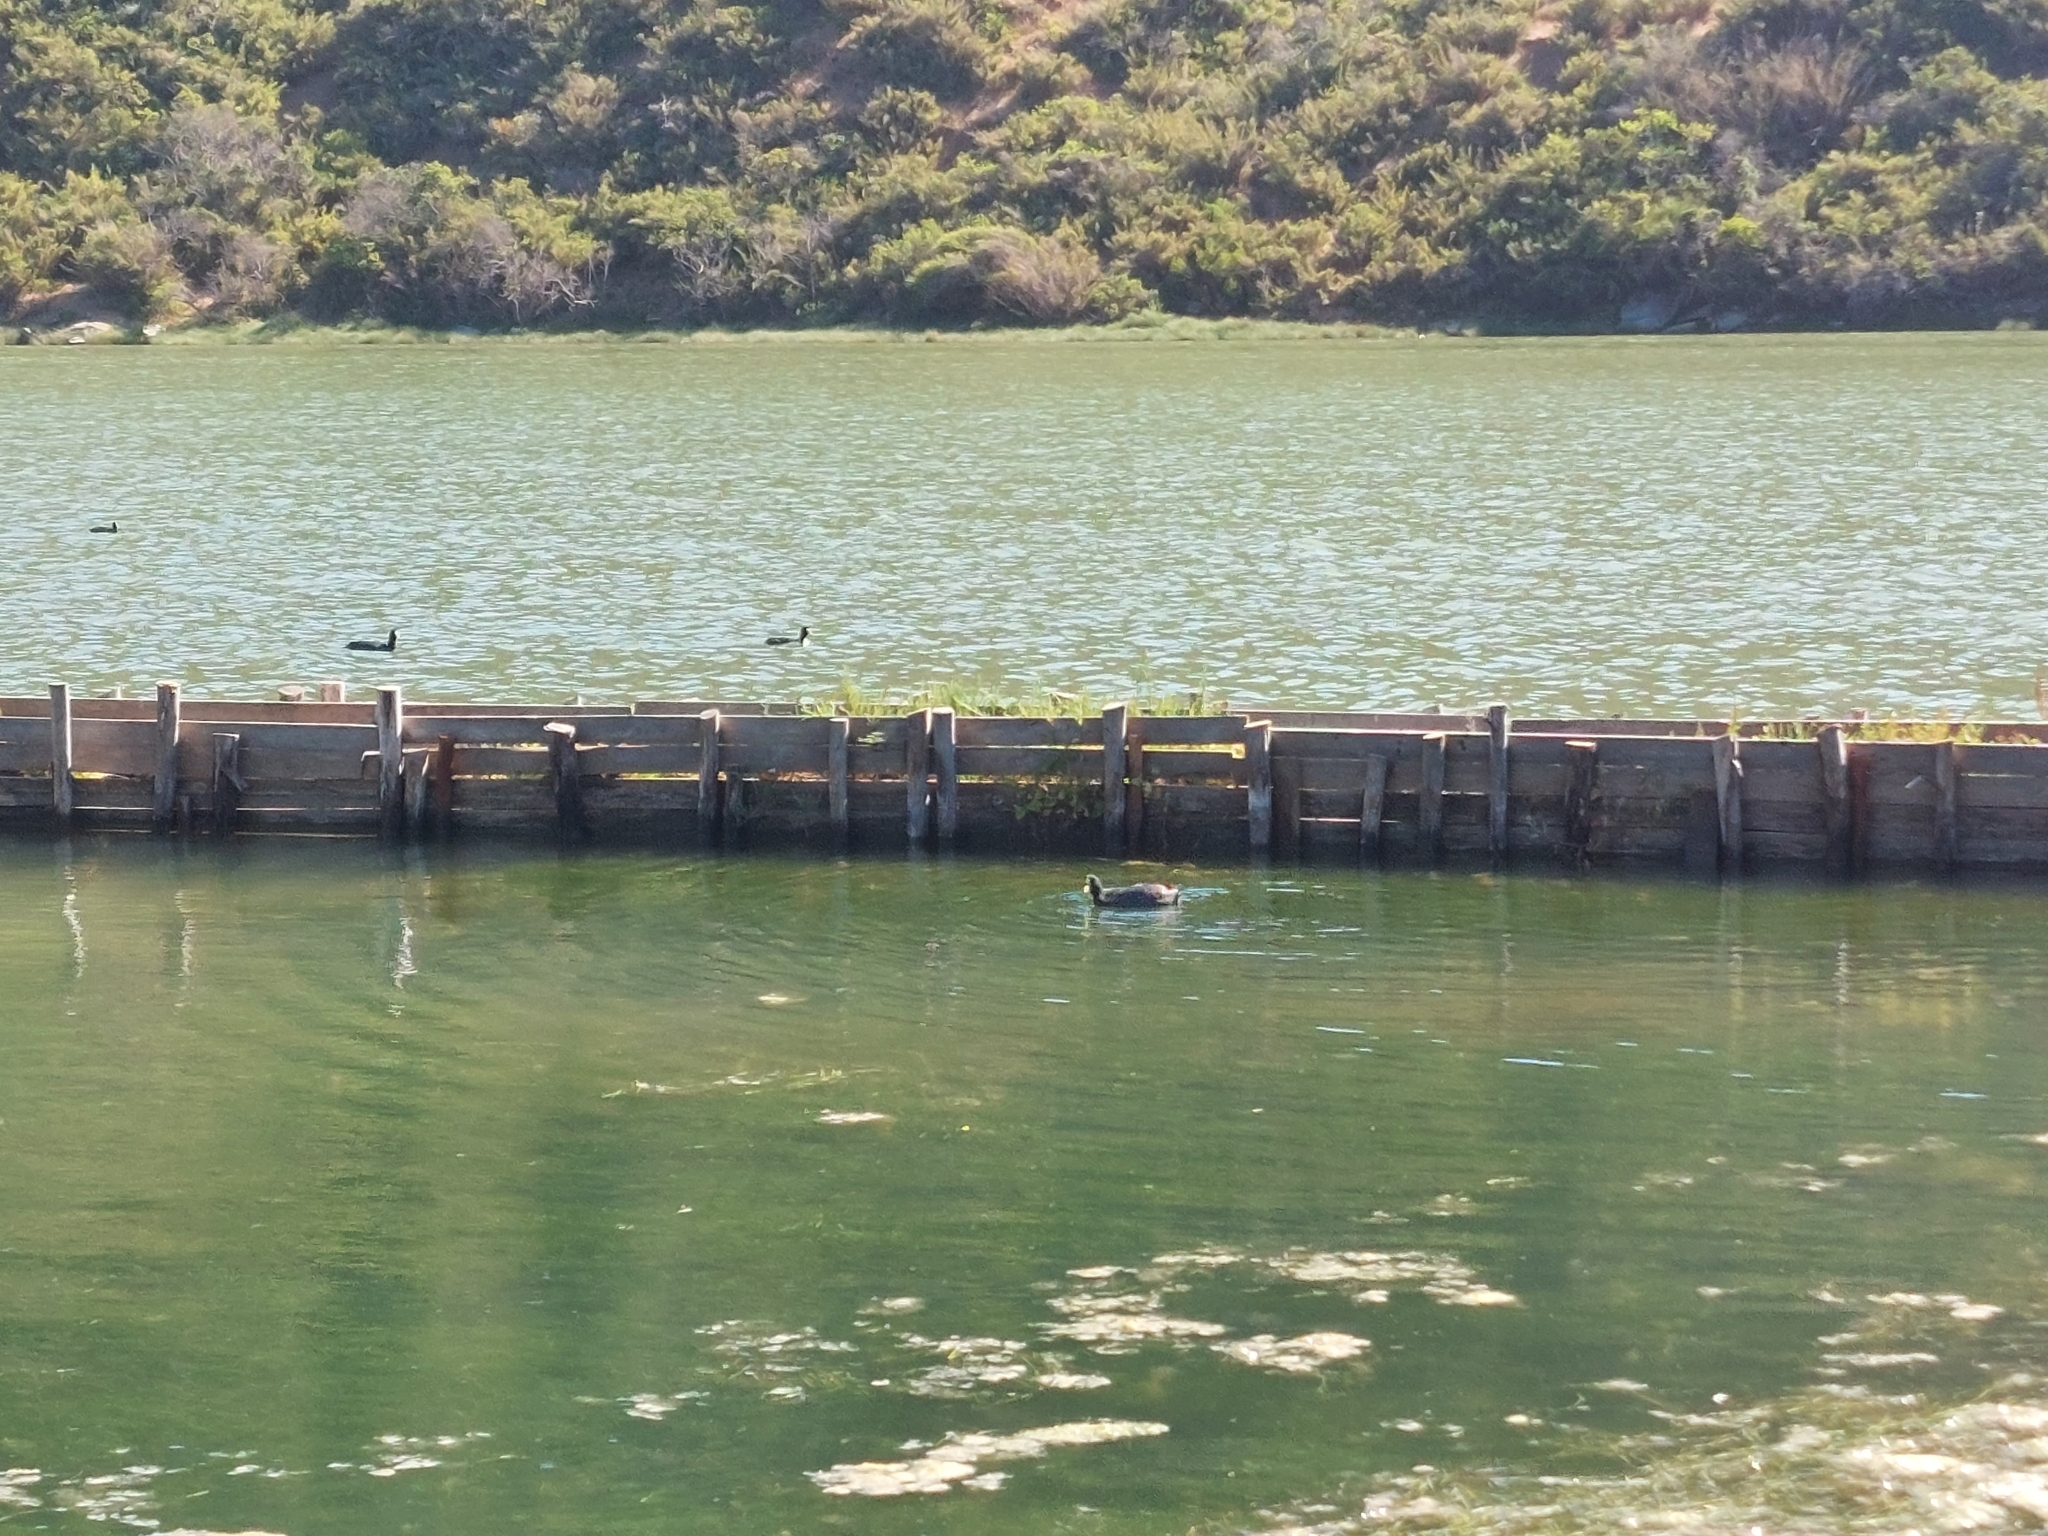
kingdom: Animalia
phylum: Chordata
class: Aves
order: Gruiformes
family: Rallidae
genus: Fulica
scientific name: Fulica armillata
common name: Red-gartered coot
